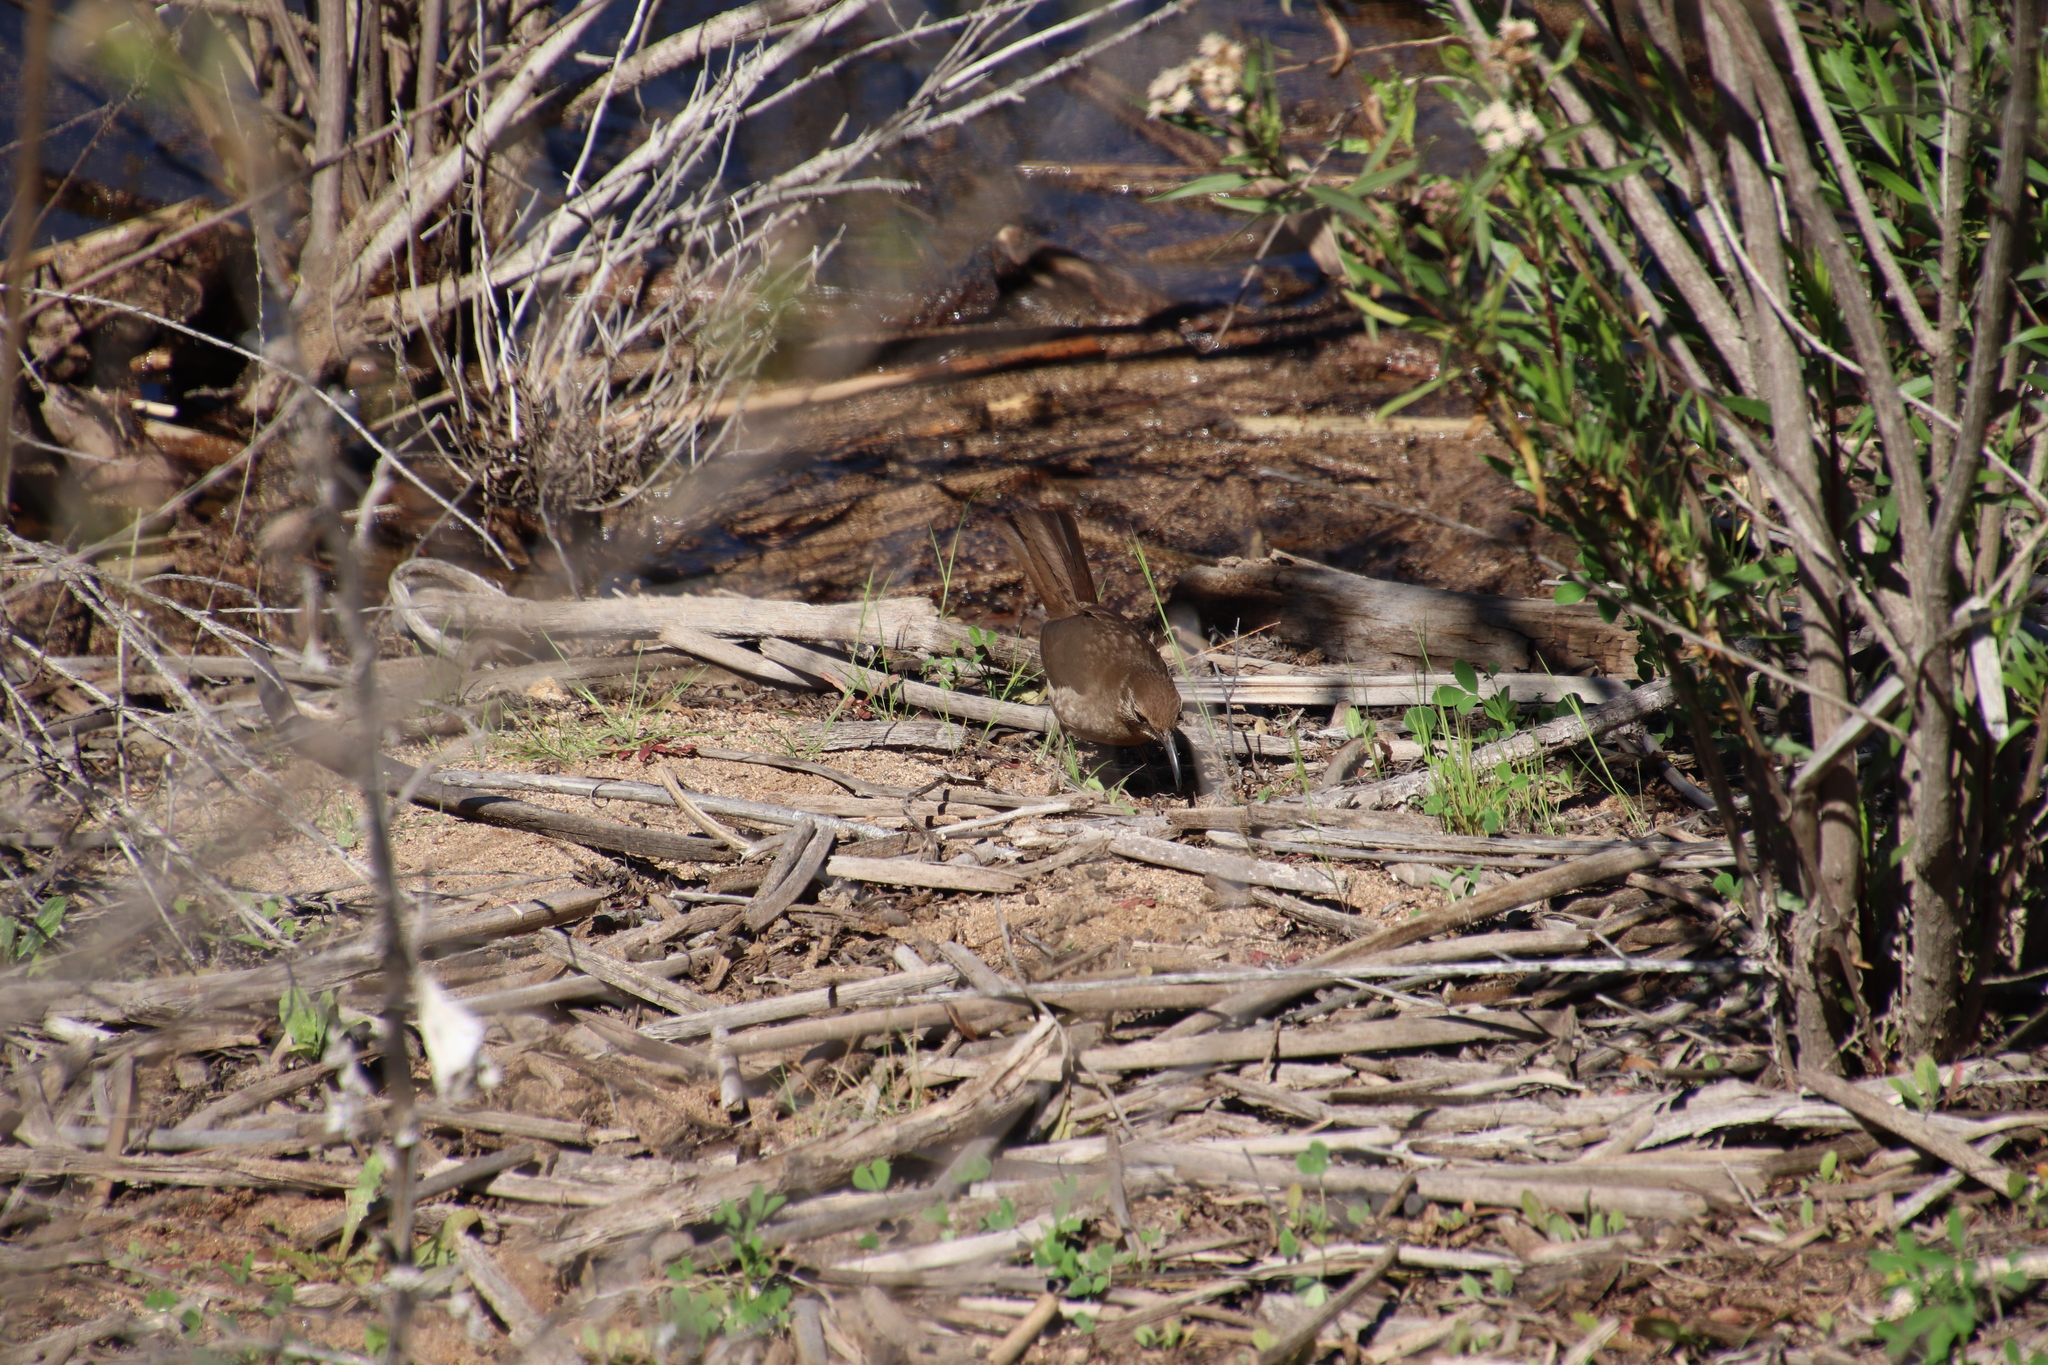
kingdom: Animalia
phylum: Chordata
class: Aves
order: Passeriformes
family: Mimidae
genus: Toxostoma
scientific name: Toxostoma redivivum
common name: California thrasher
